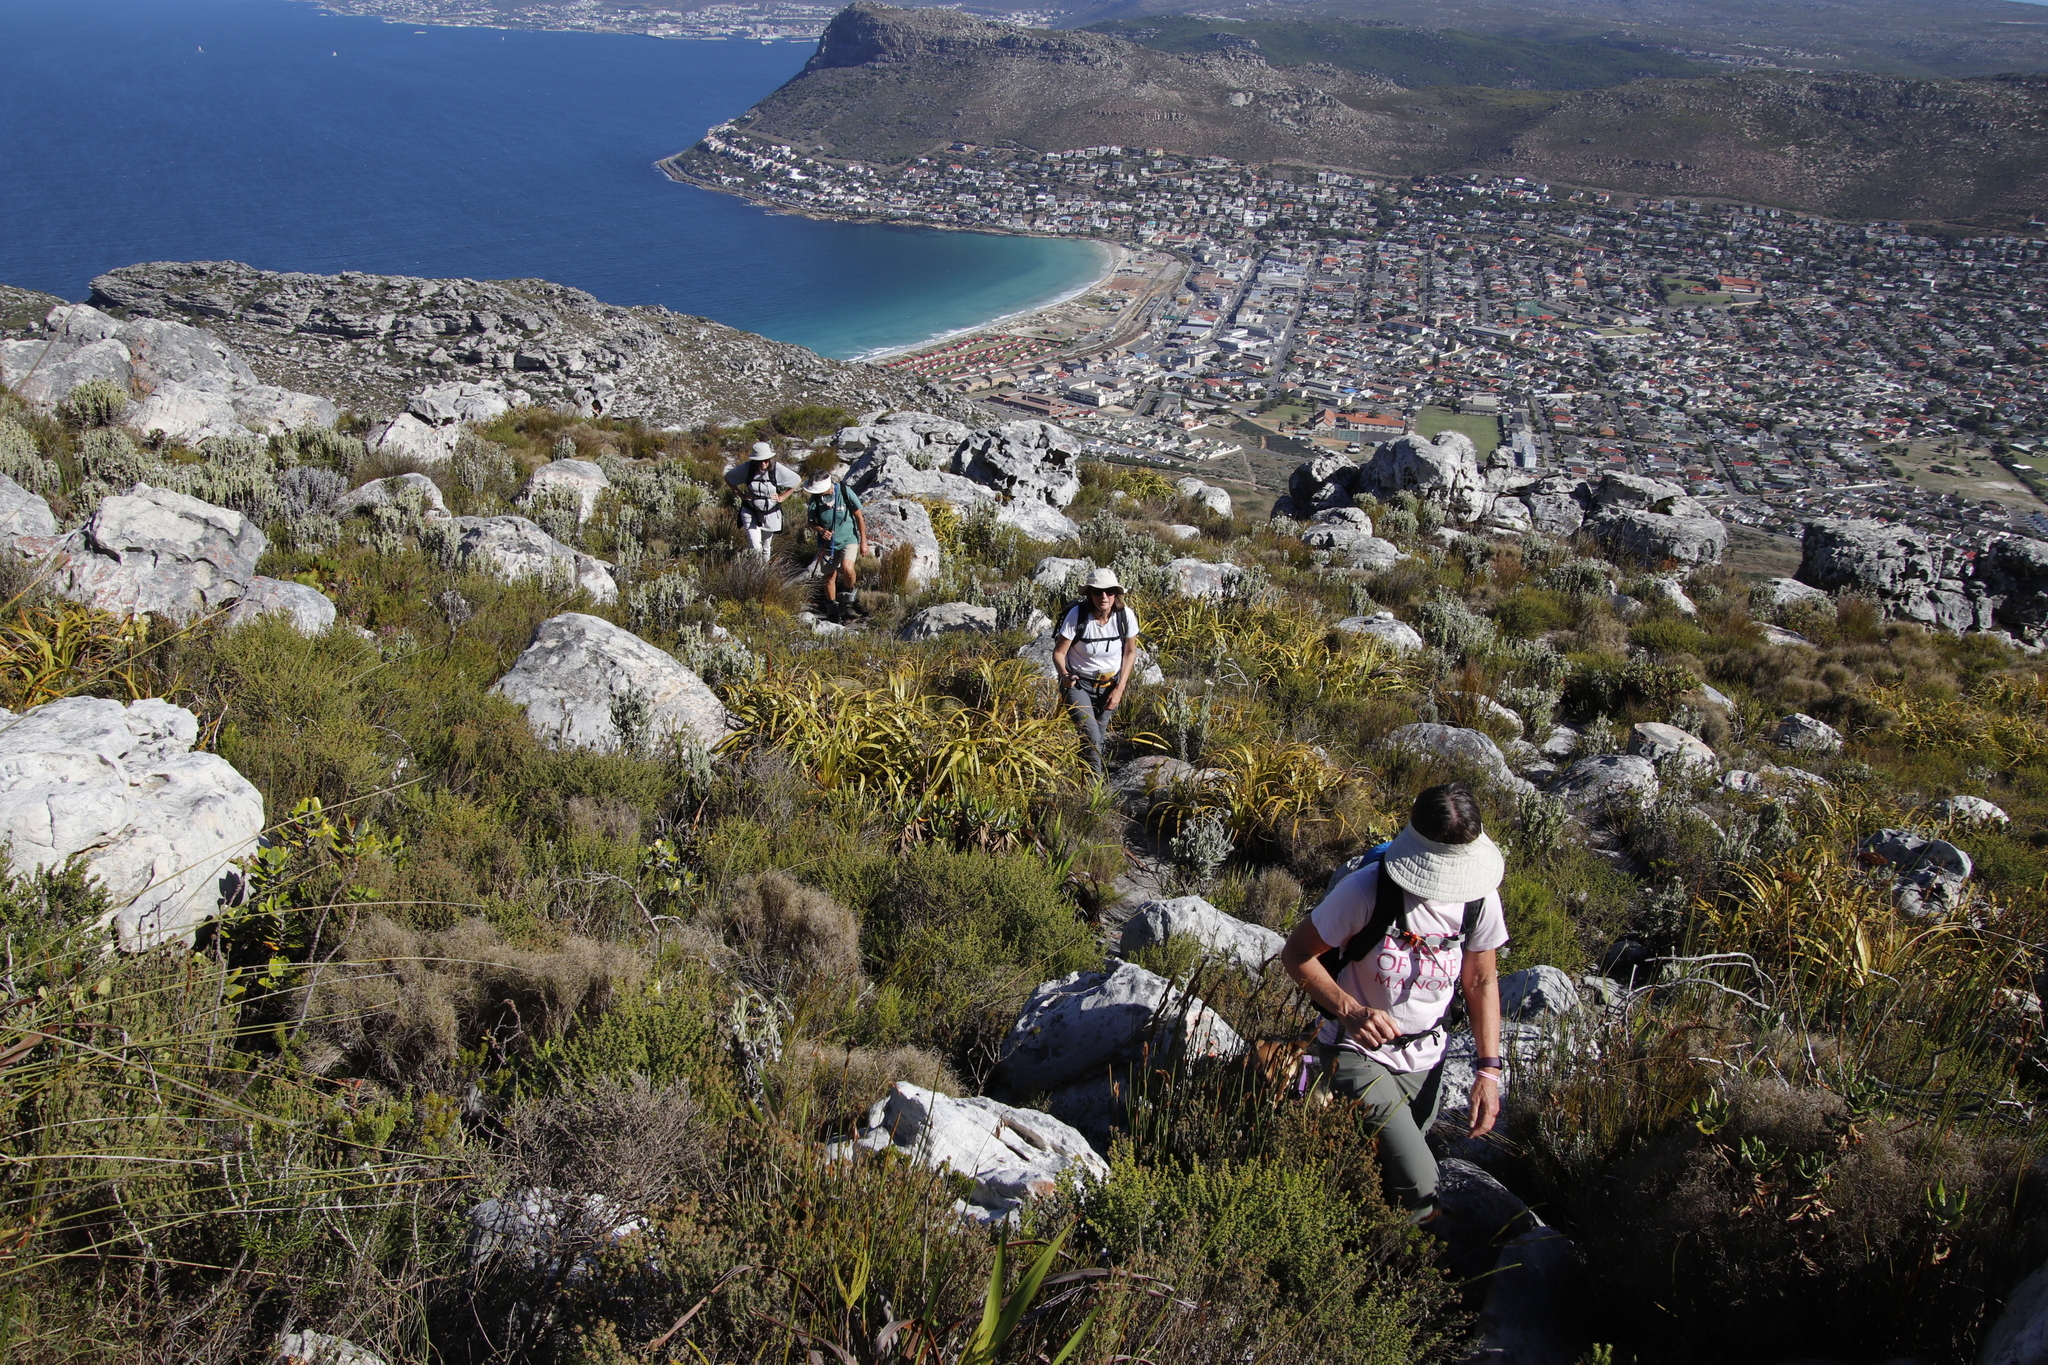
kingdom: Plantae
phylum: Tracheophyta
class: Liliopsida
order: Poales
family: Cyperaceae
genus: Tetraria
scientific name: Tetraria thermalis
